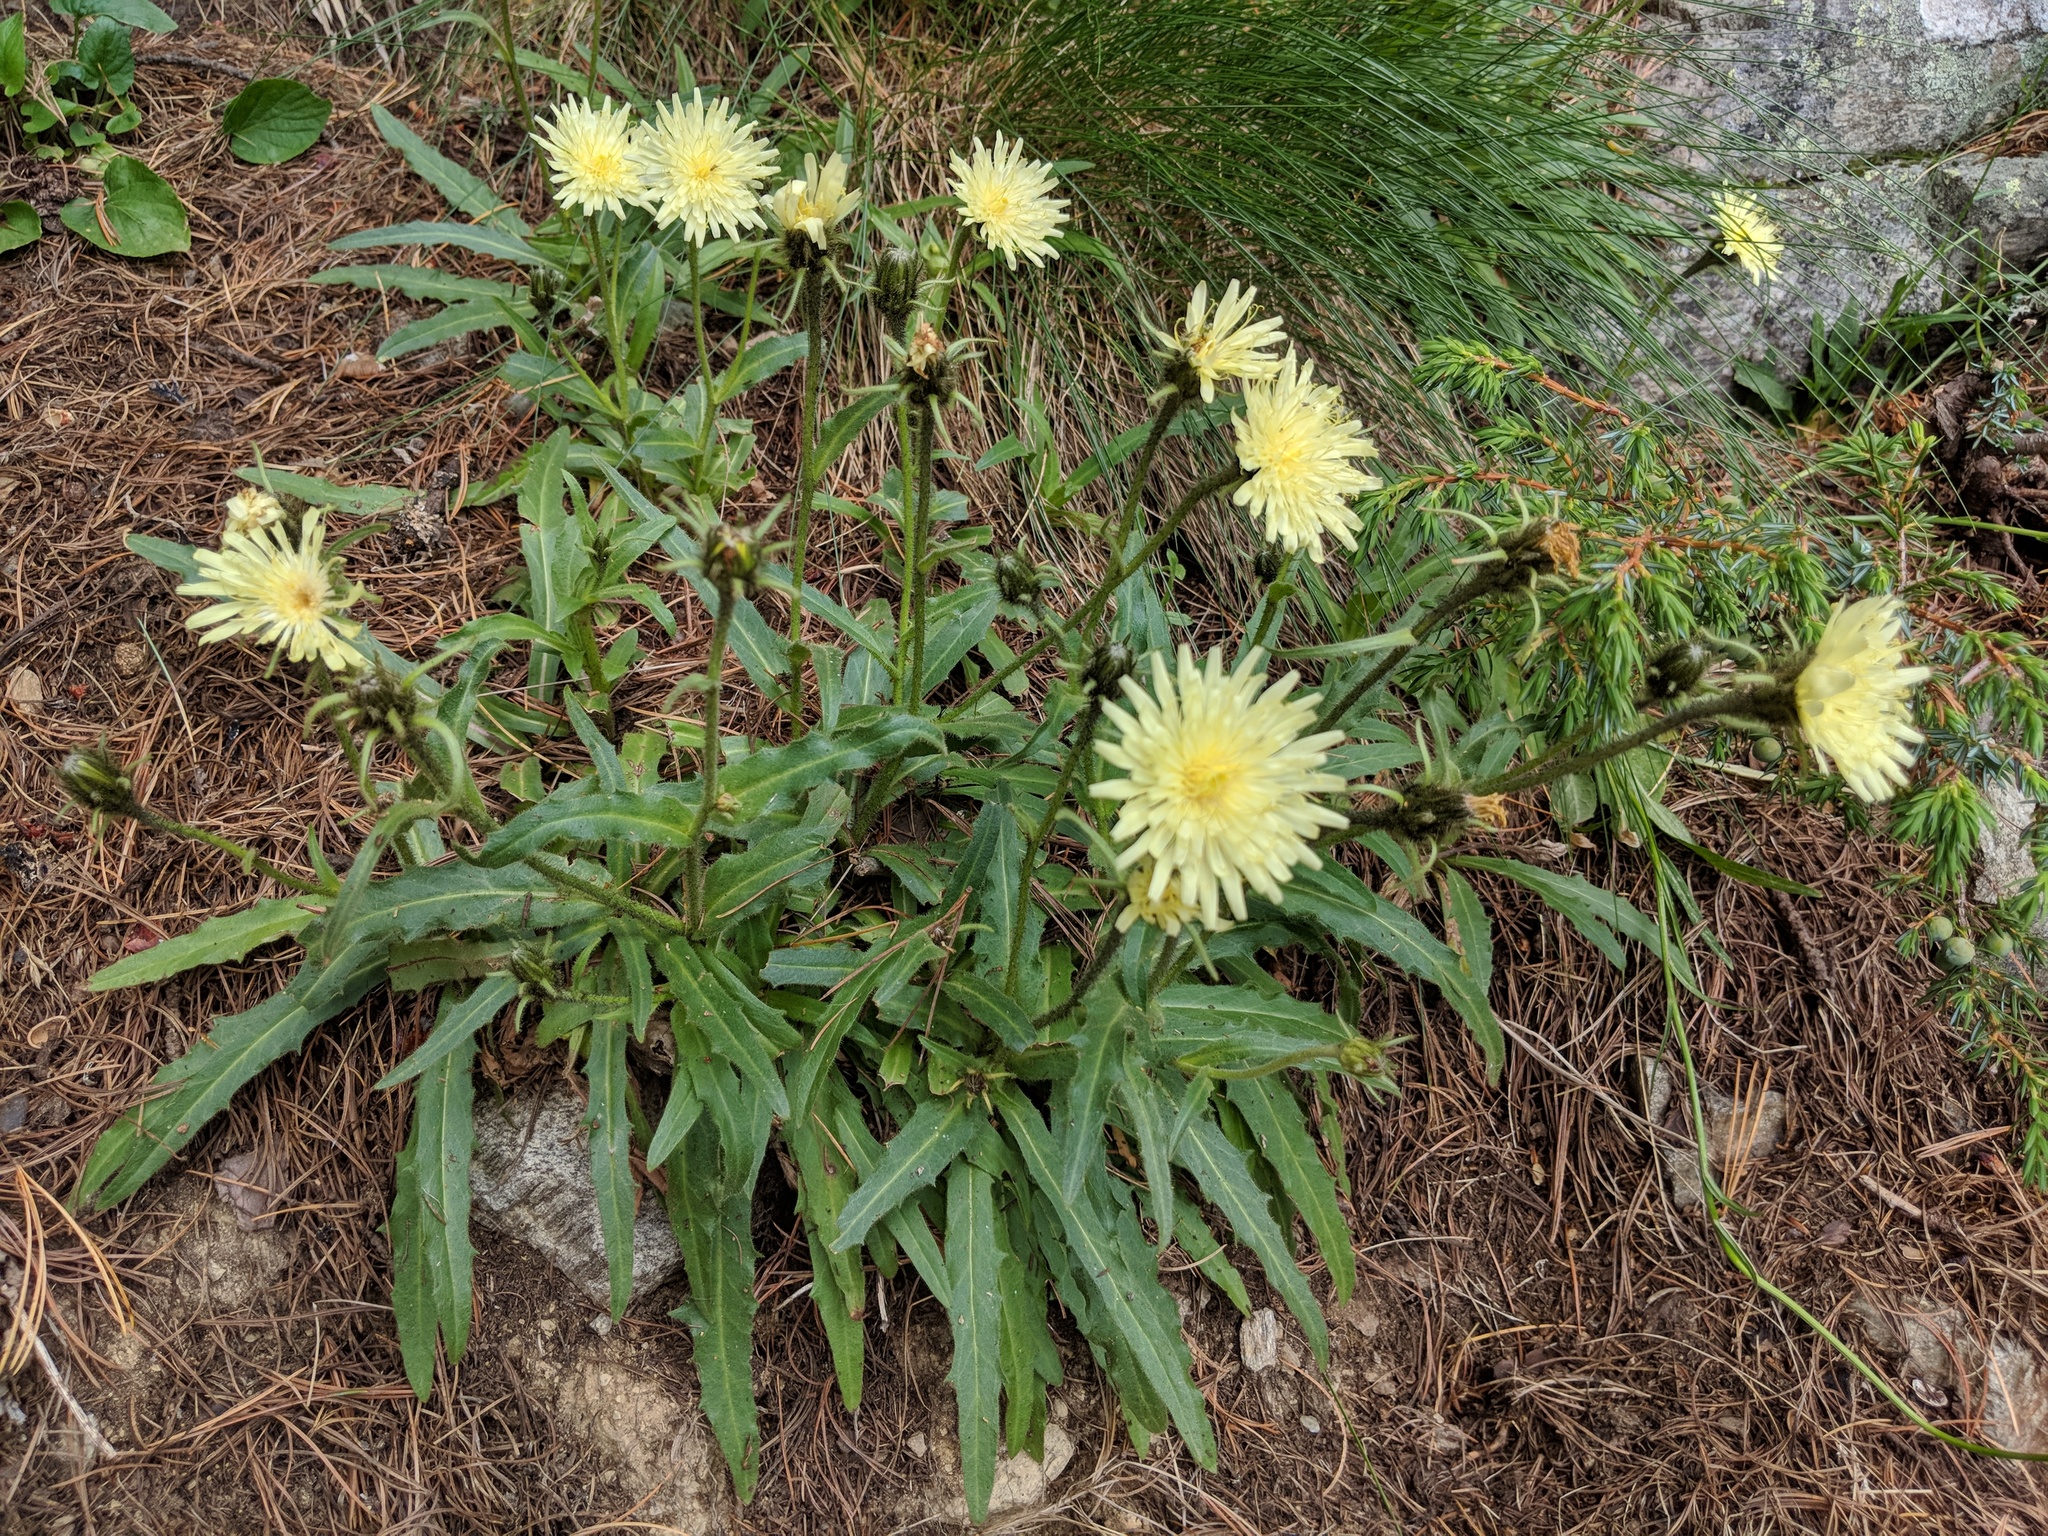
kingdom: Plantae
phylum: Tracheophyta
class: Magnoliopsida
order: Asterales
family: Asteraceae
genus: Schlagintweitia
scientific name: Schlagintweitia intybacea
